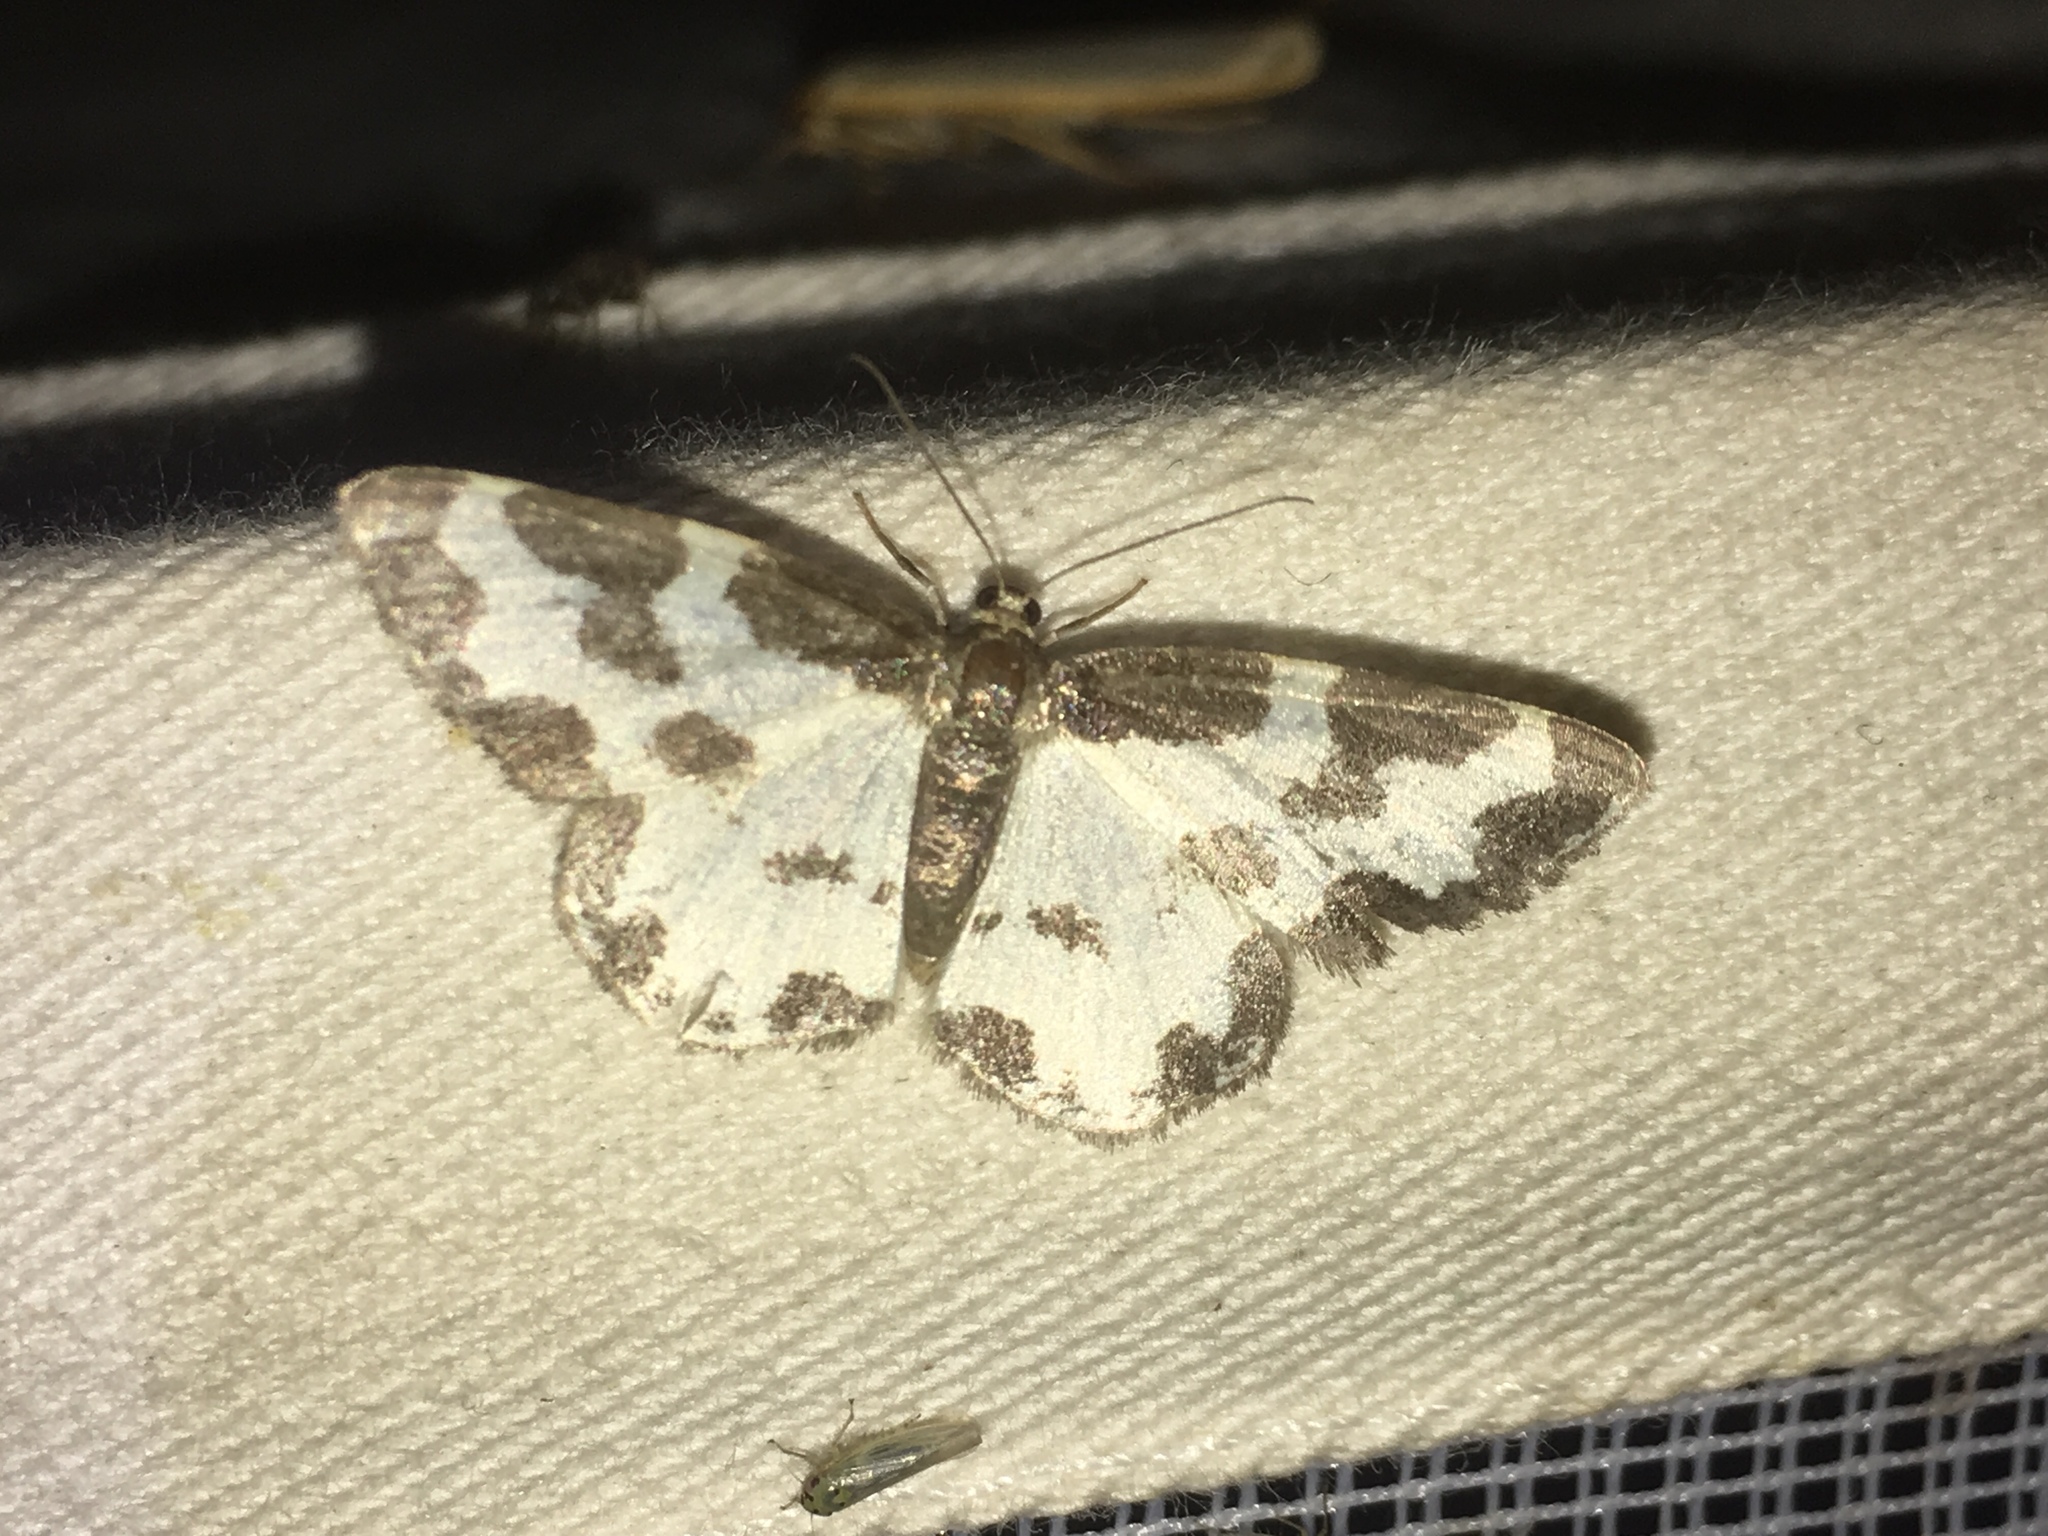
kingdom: Animalia
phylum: Arthropoda
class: Insecta
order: Lepidoptera
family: Geometridae
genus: Lomaspilis
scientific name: Lomaspilis marginata
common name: Clouded border
